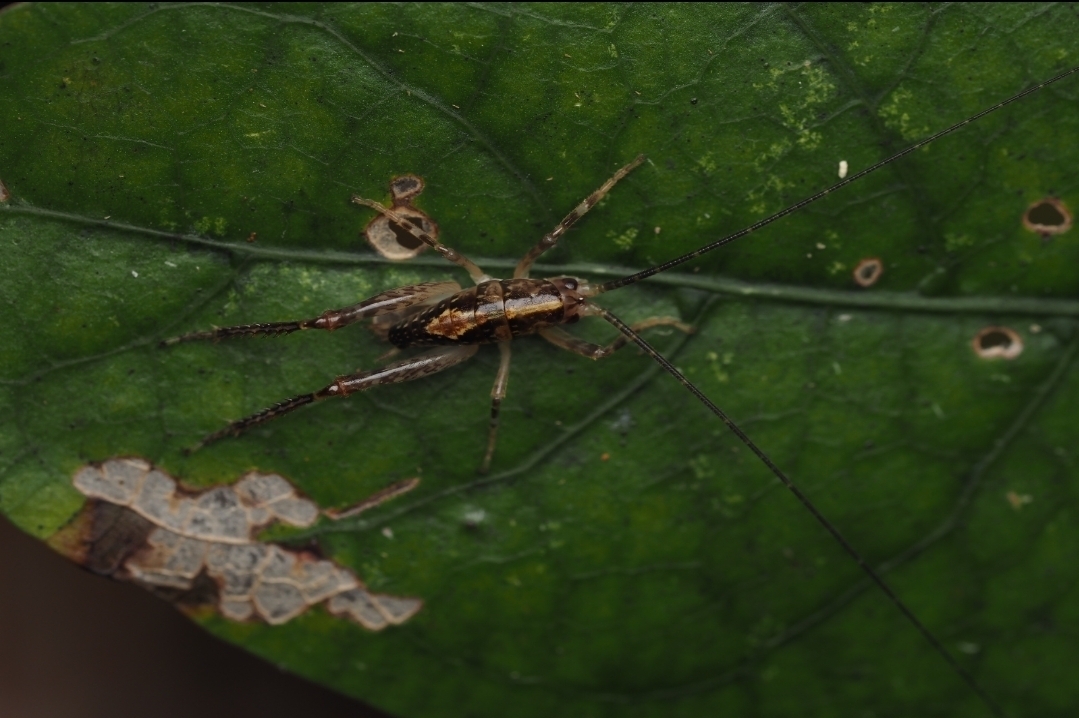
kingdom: Animalia
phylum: Arthropoda
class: Insecta
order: Orthoptera
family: Rhaphidophoridae
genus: Talitropsis
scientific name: Talitropsis sedilloti
